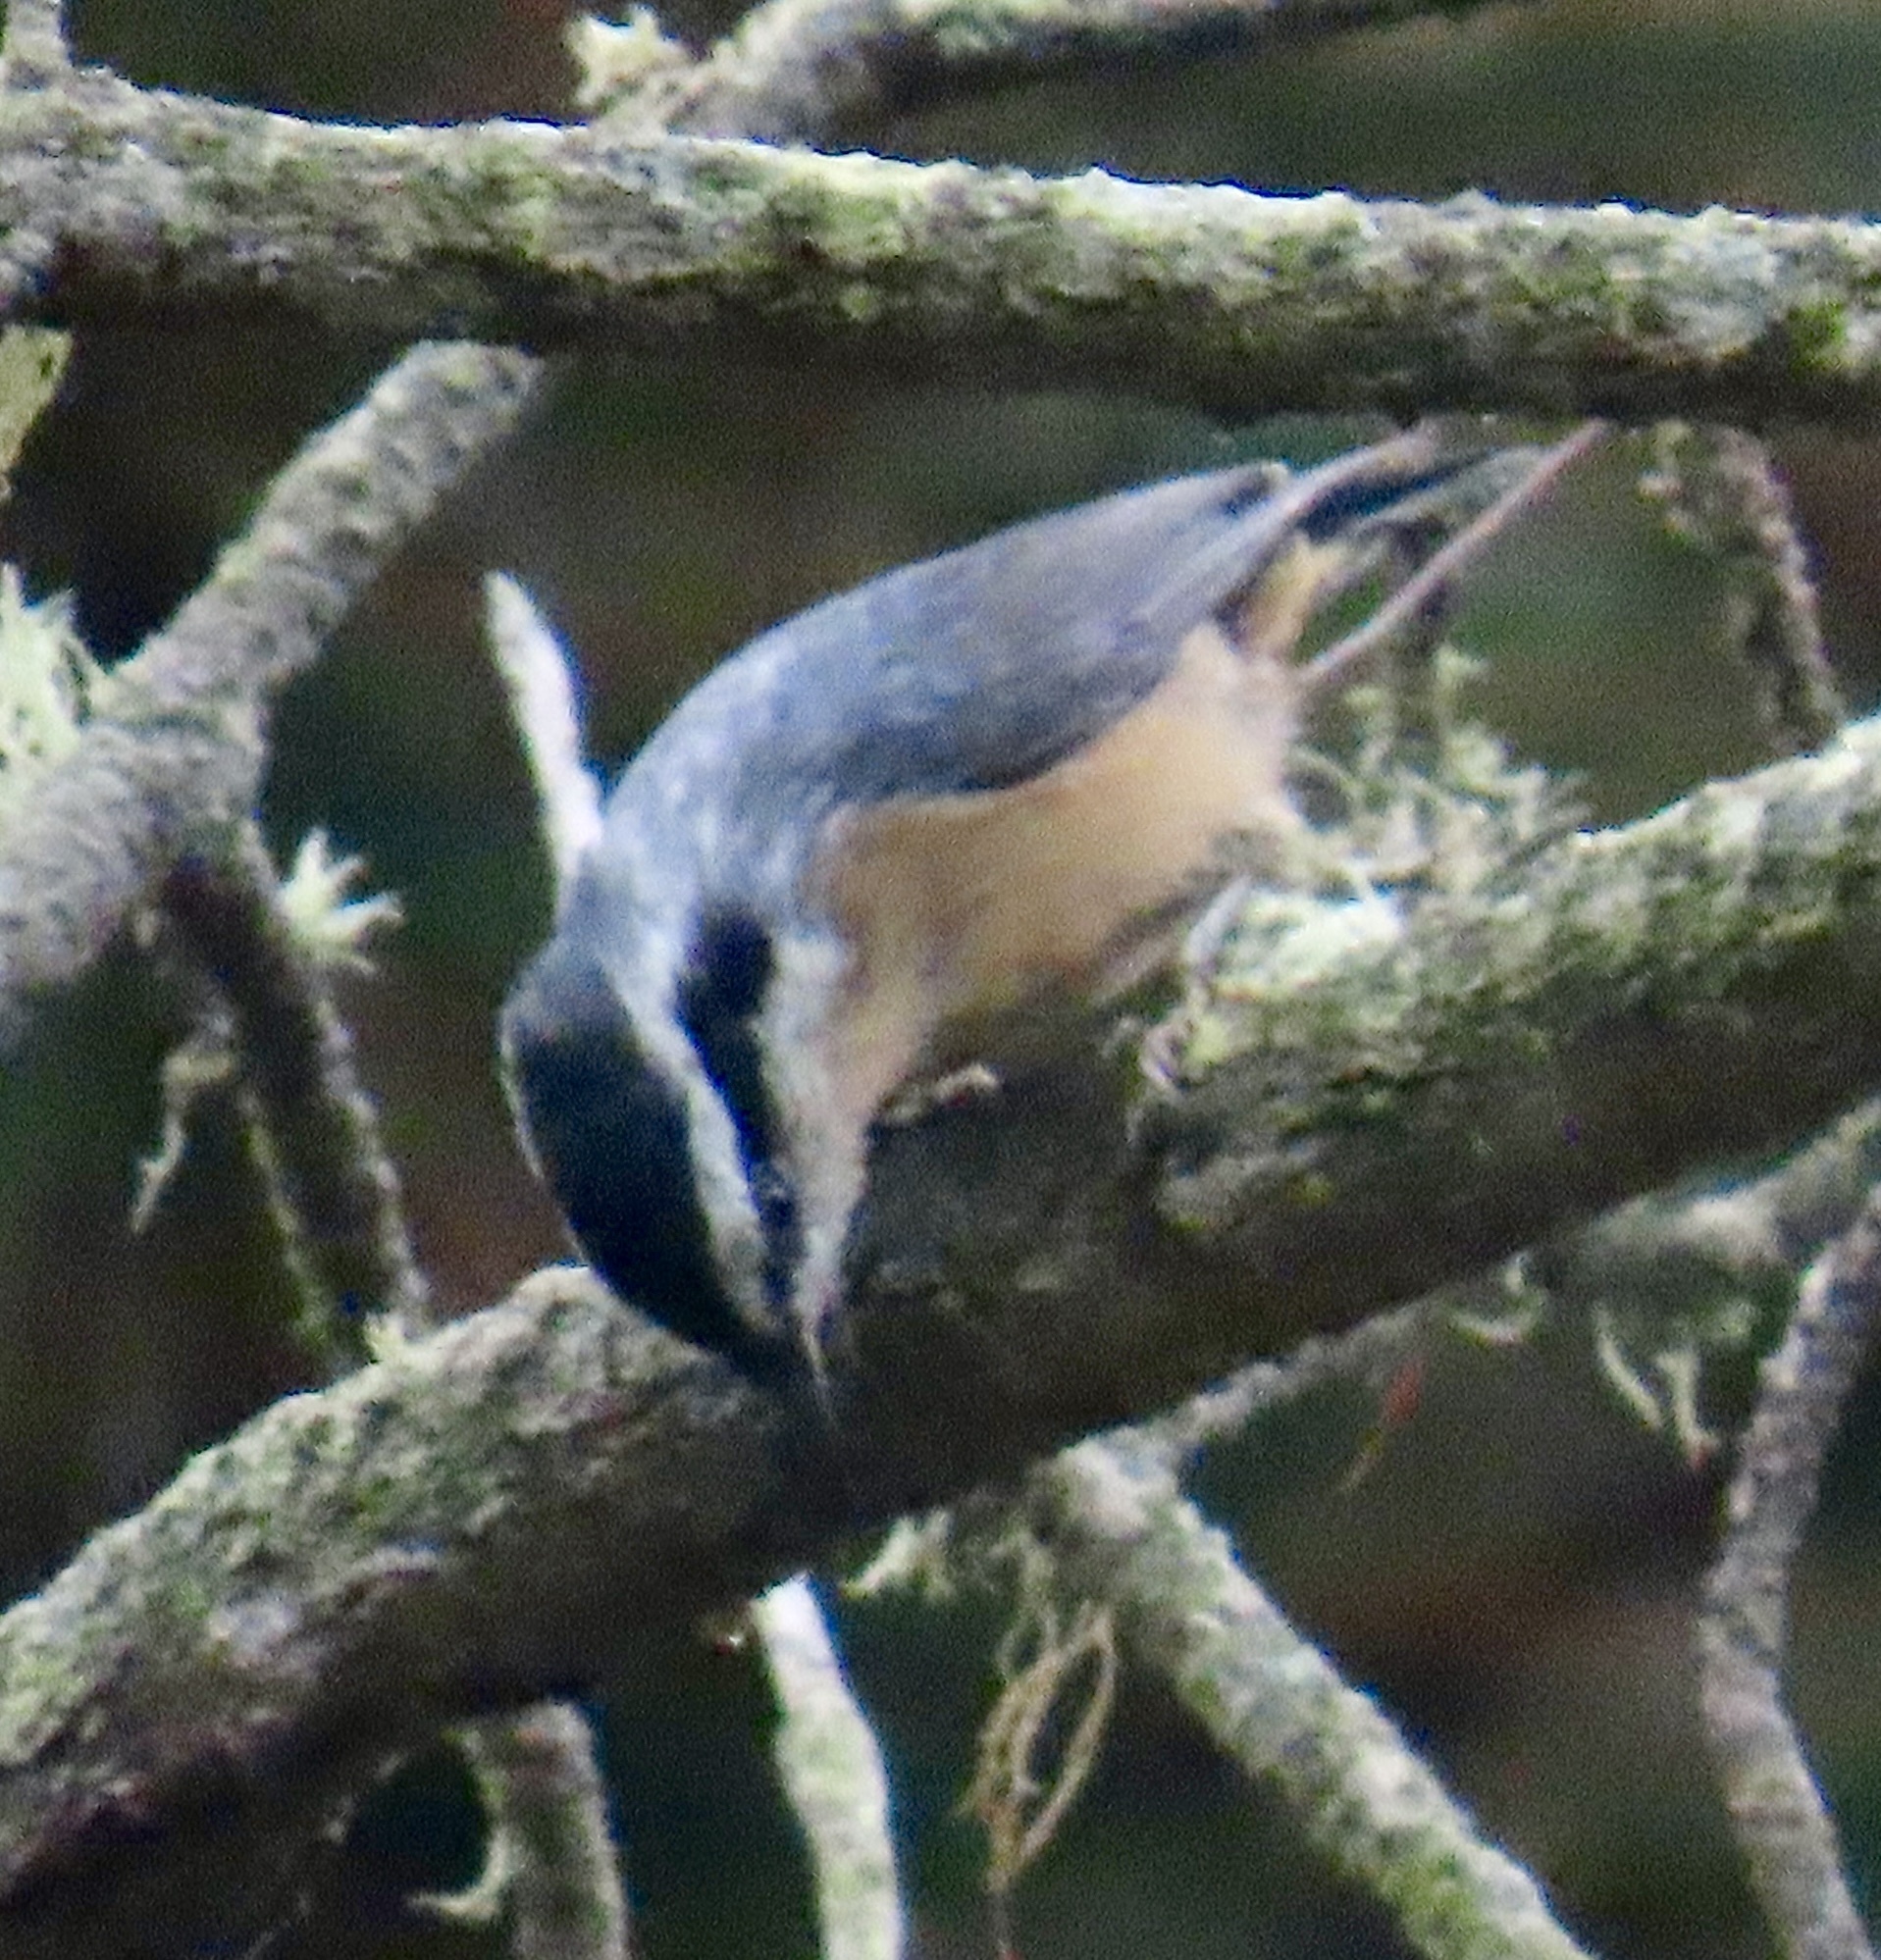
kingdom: Animalia
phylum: Chordata
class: Aves
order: Passeriformes
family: Sittidae
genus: Sitta
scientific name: Sitta canadensis
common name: Red-breasted nuthatch
